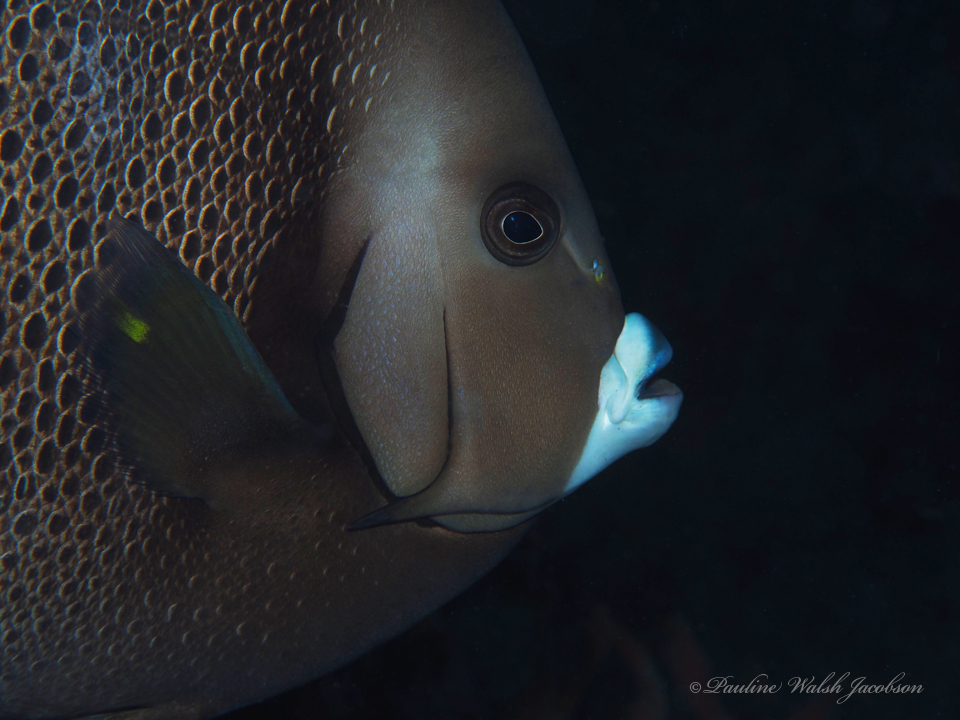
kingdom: Animalia
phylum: Chordata
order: Perciformes
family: Pomacanthidae
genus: Pomacanthus
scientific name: Pomacanthus arcuatus
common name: Gray angelfish
